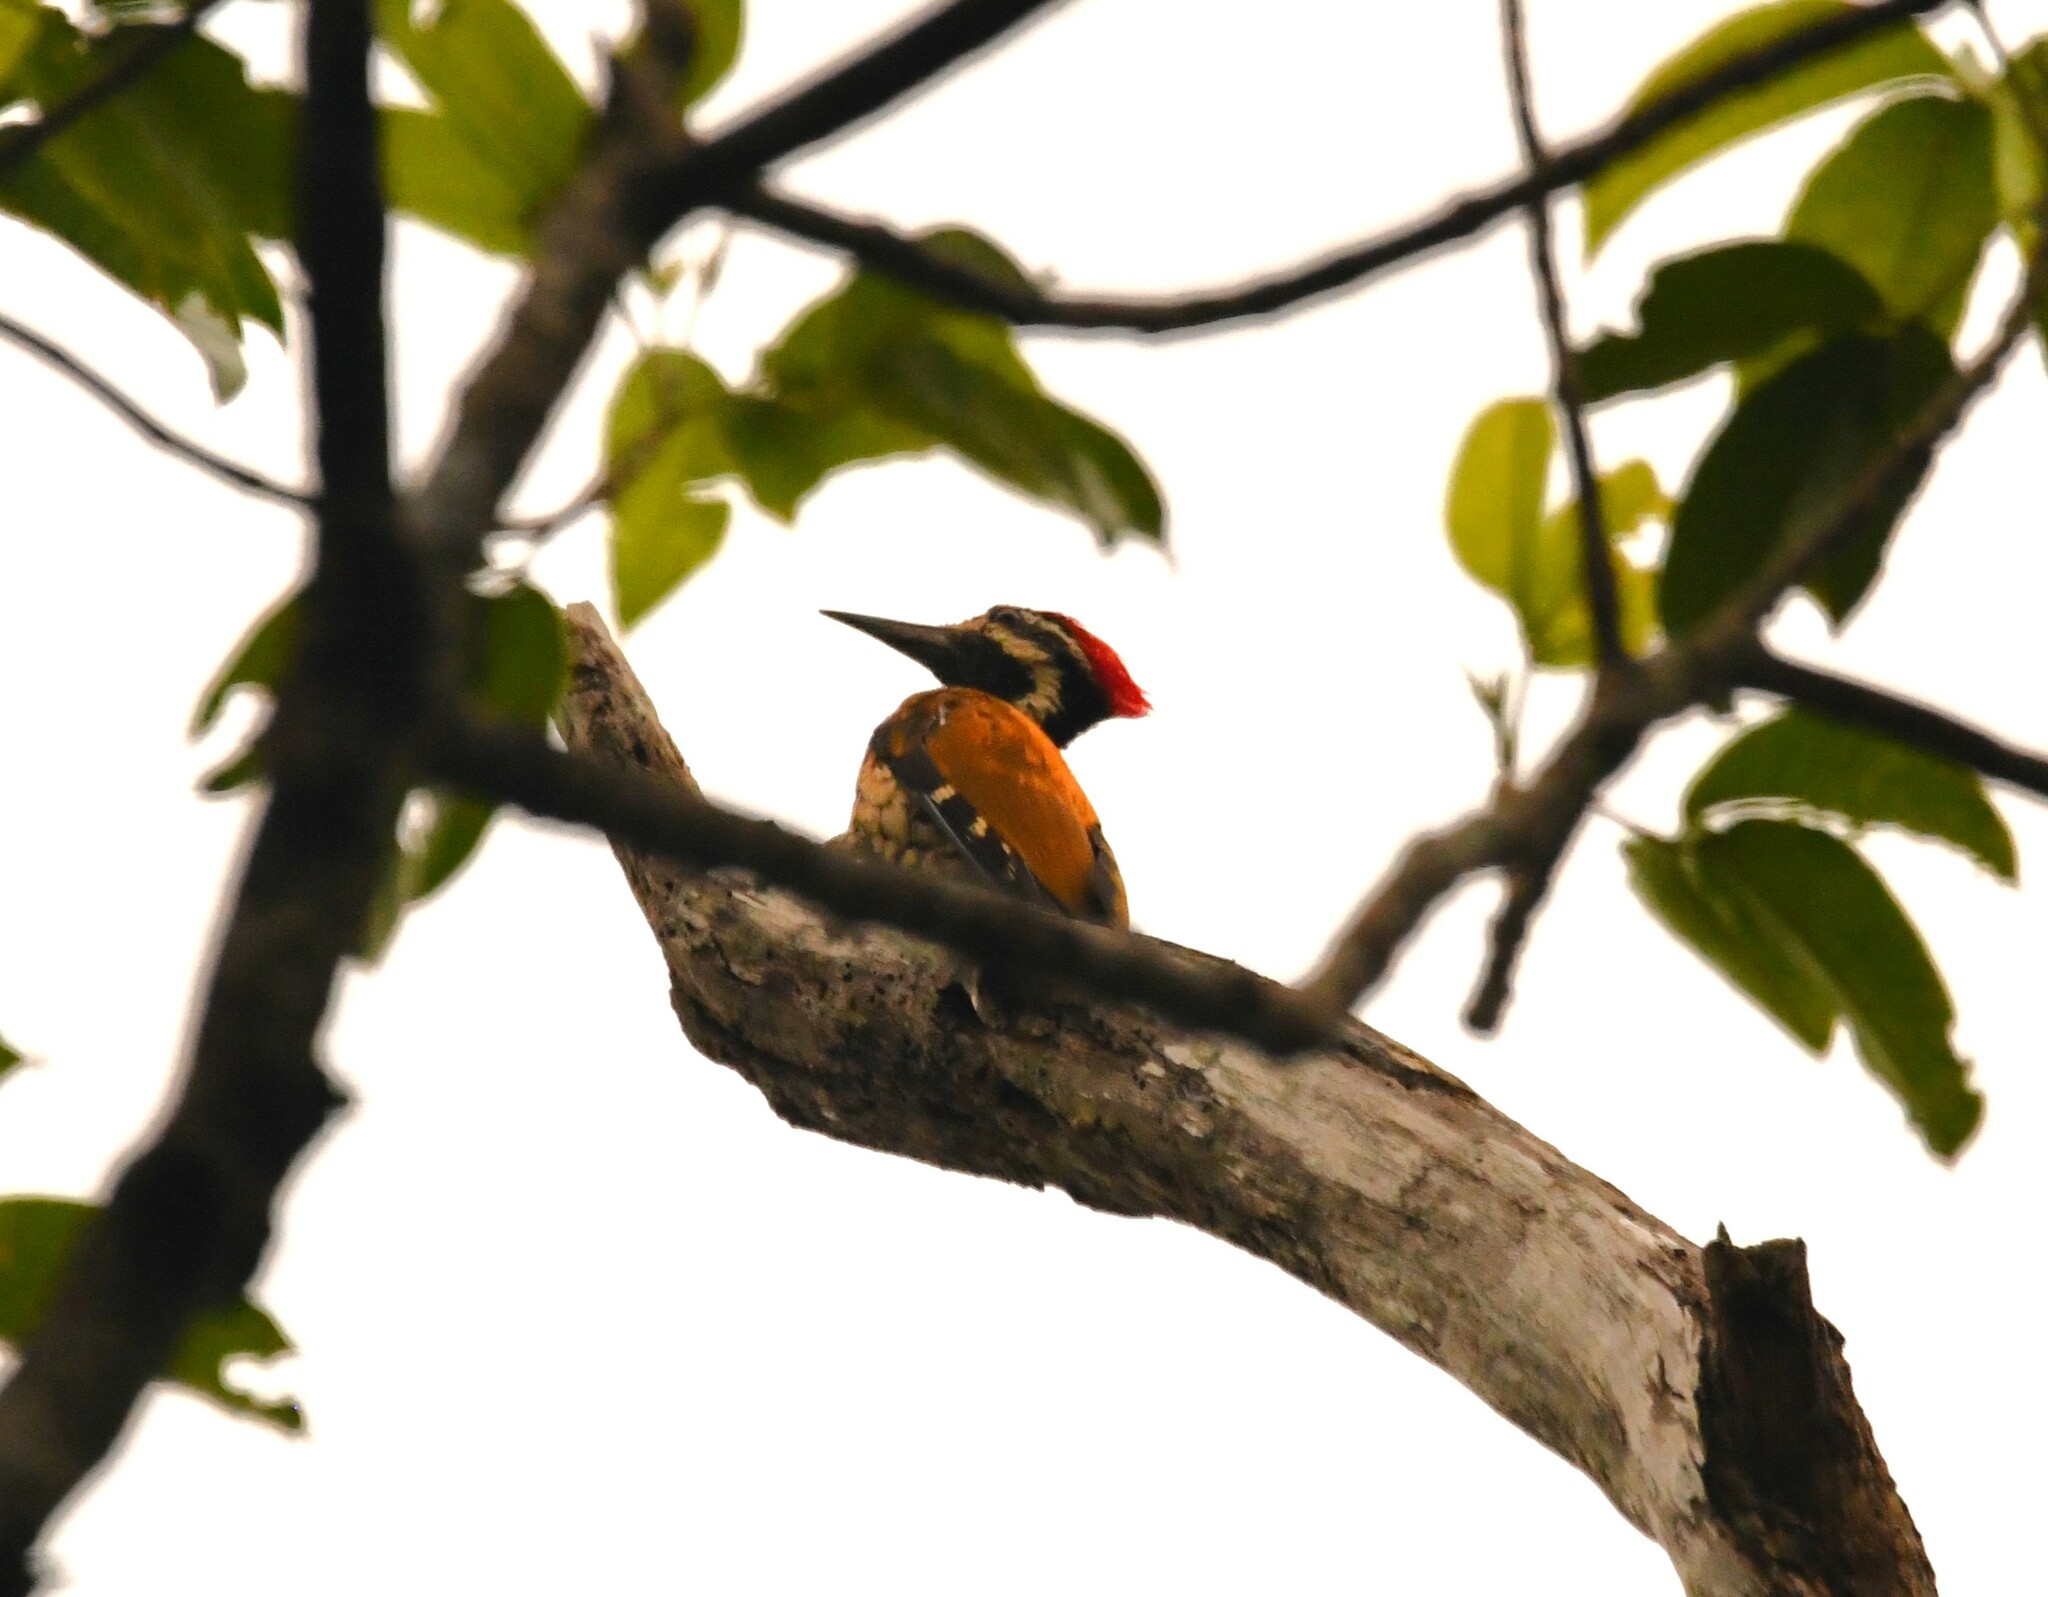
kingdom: Animalia
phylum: Chordata
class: Aves
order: Piciformes
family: Picidae
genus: Dinopium
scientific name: Dinopium benghalense
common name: Black-rumped flameback
